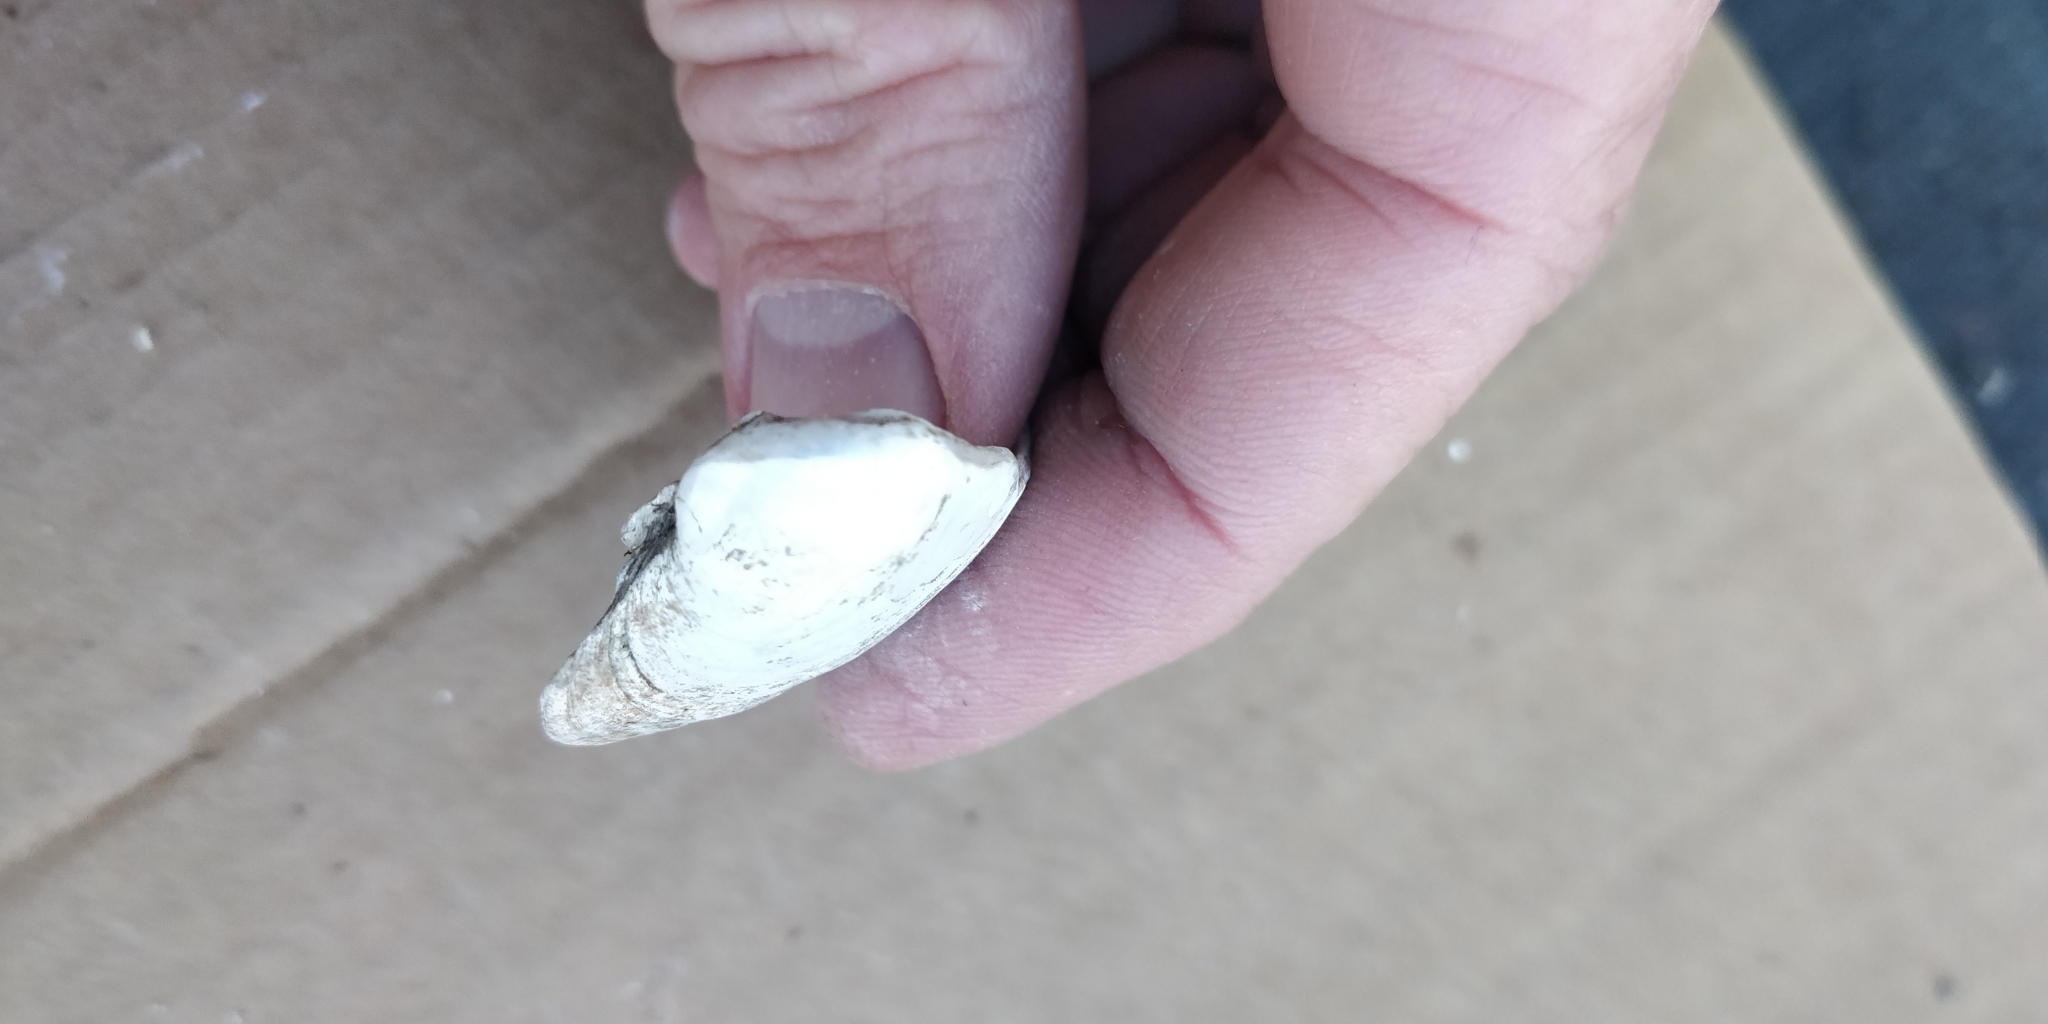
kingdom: Animalia
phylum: Mollusca
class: Bivalvia
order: Unionida
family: Unionidae
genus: Truncilla
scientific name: Truncilla truncata
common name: Deertoe
